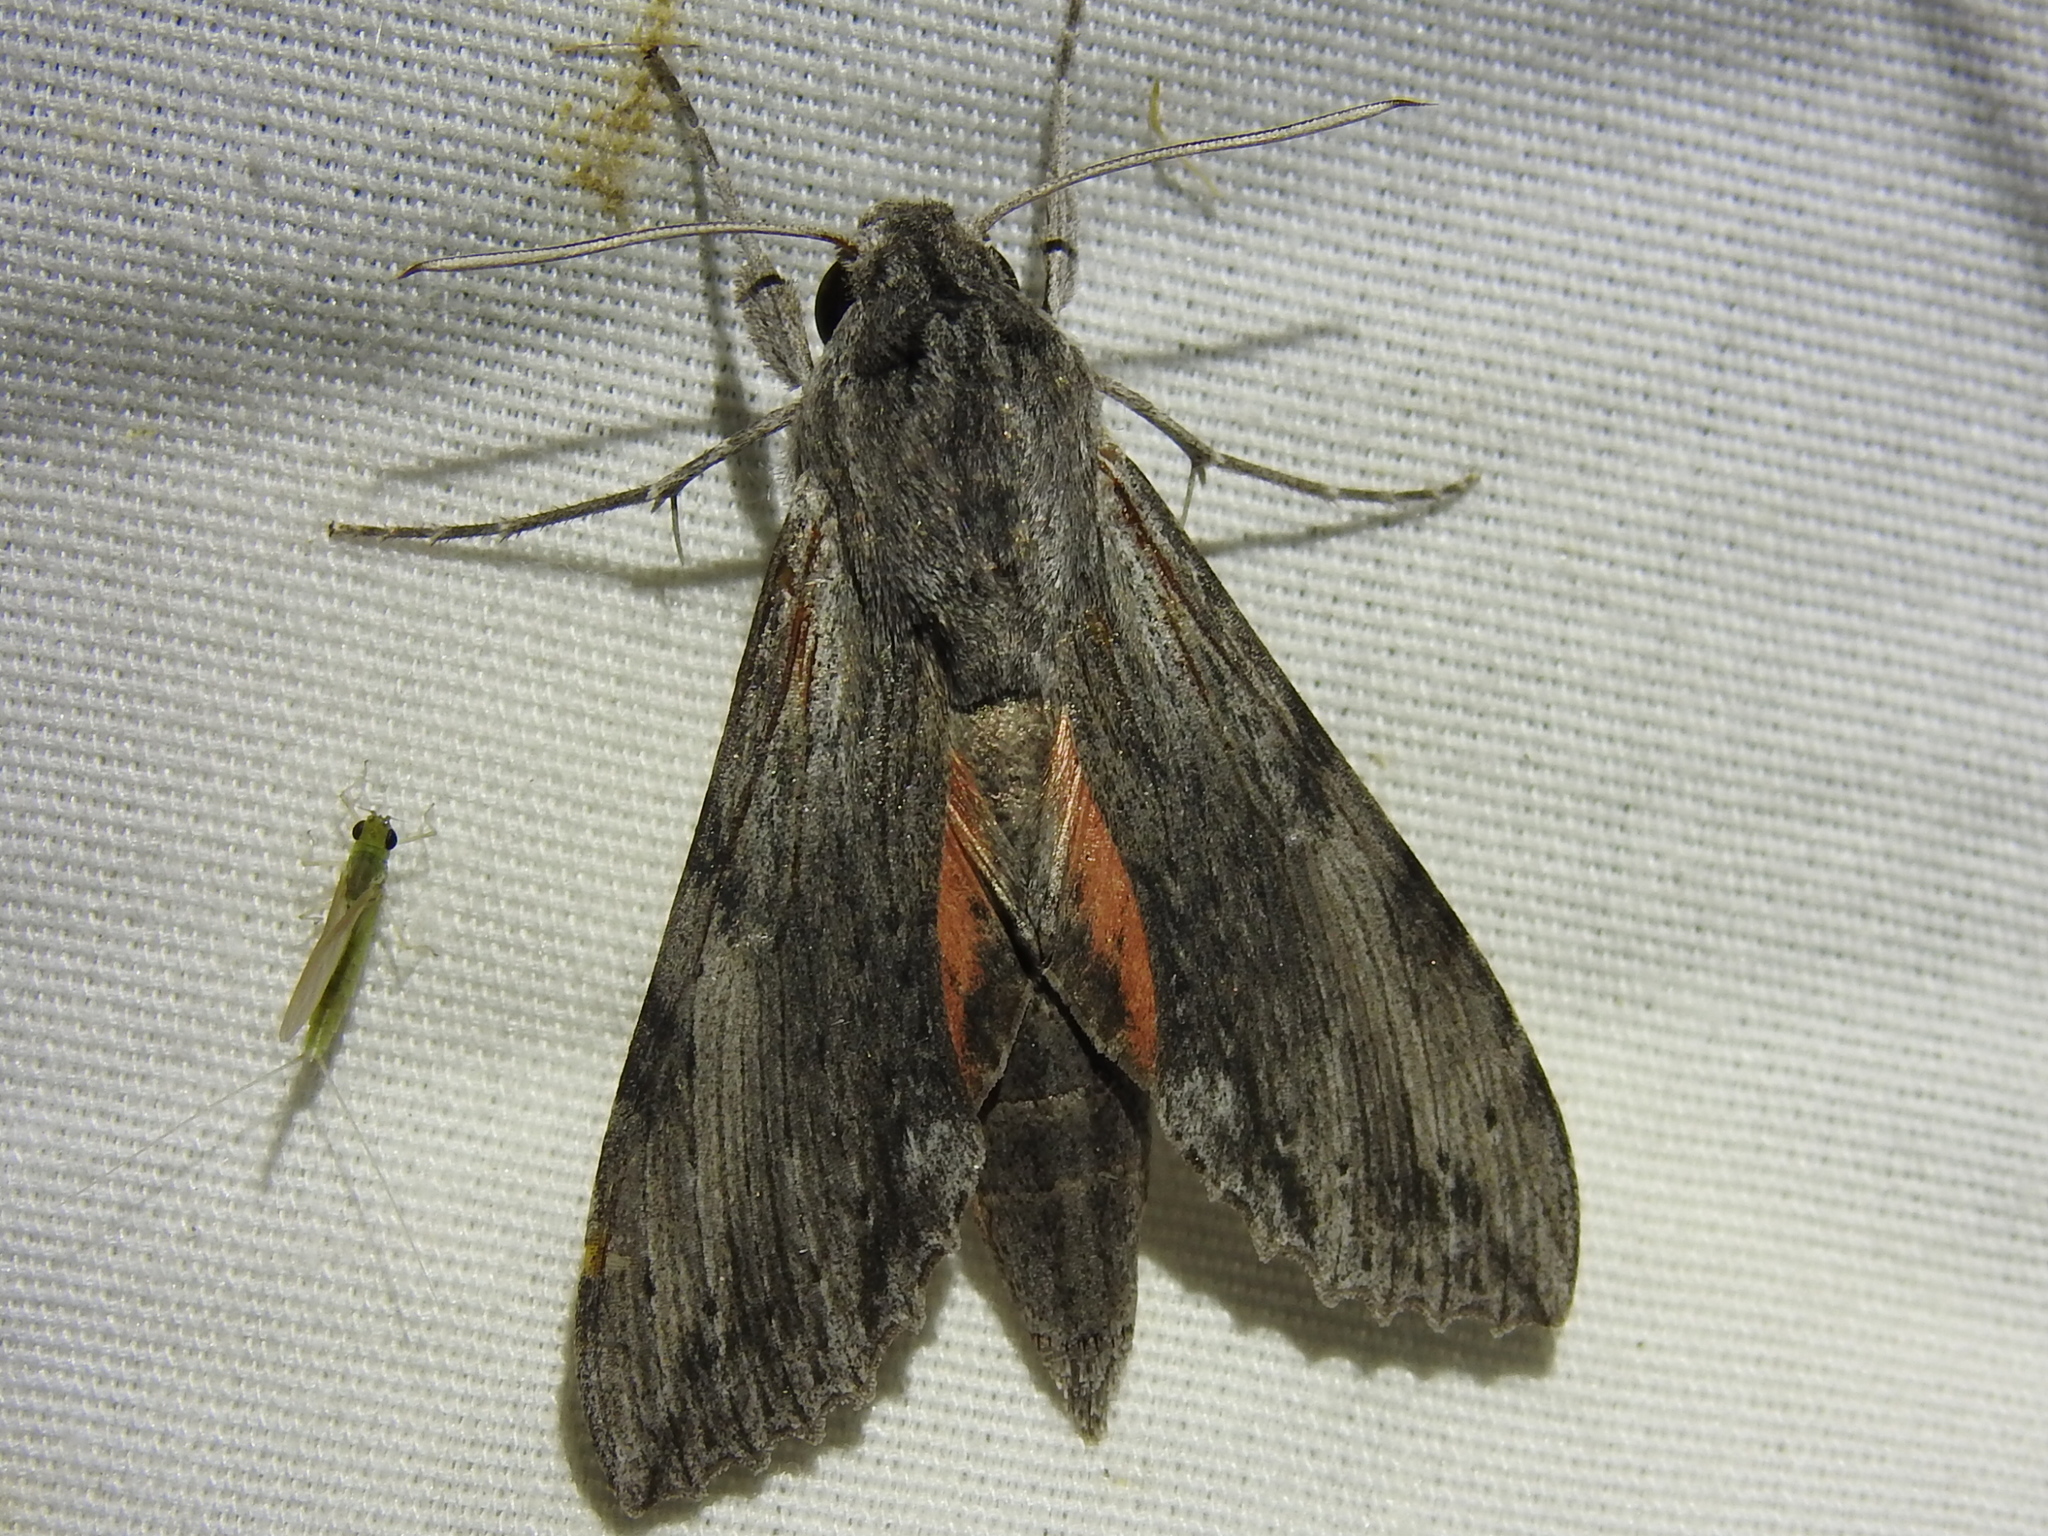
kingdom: Animalia
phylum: Arthropoda
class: Insecta
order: Lepidoptera
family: Sphingidae
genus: Erinnyis
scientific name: Erinnyis obscura
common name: Obscure sphinx
